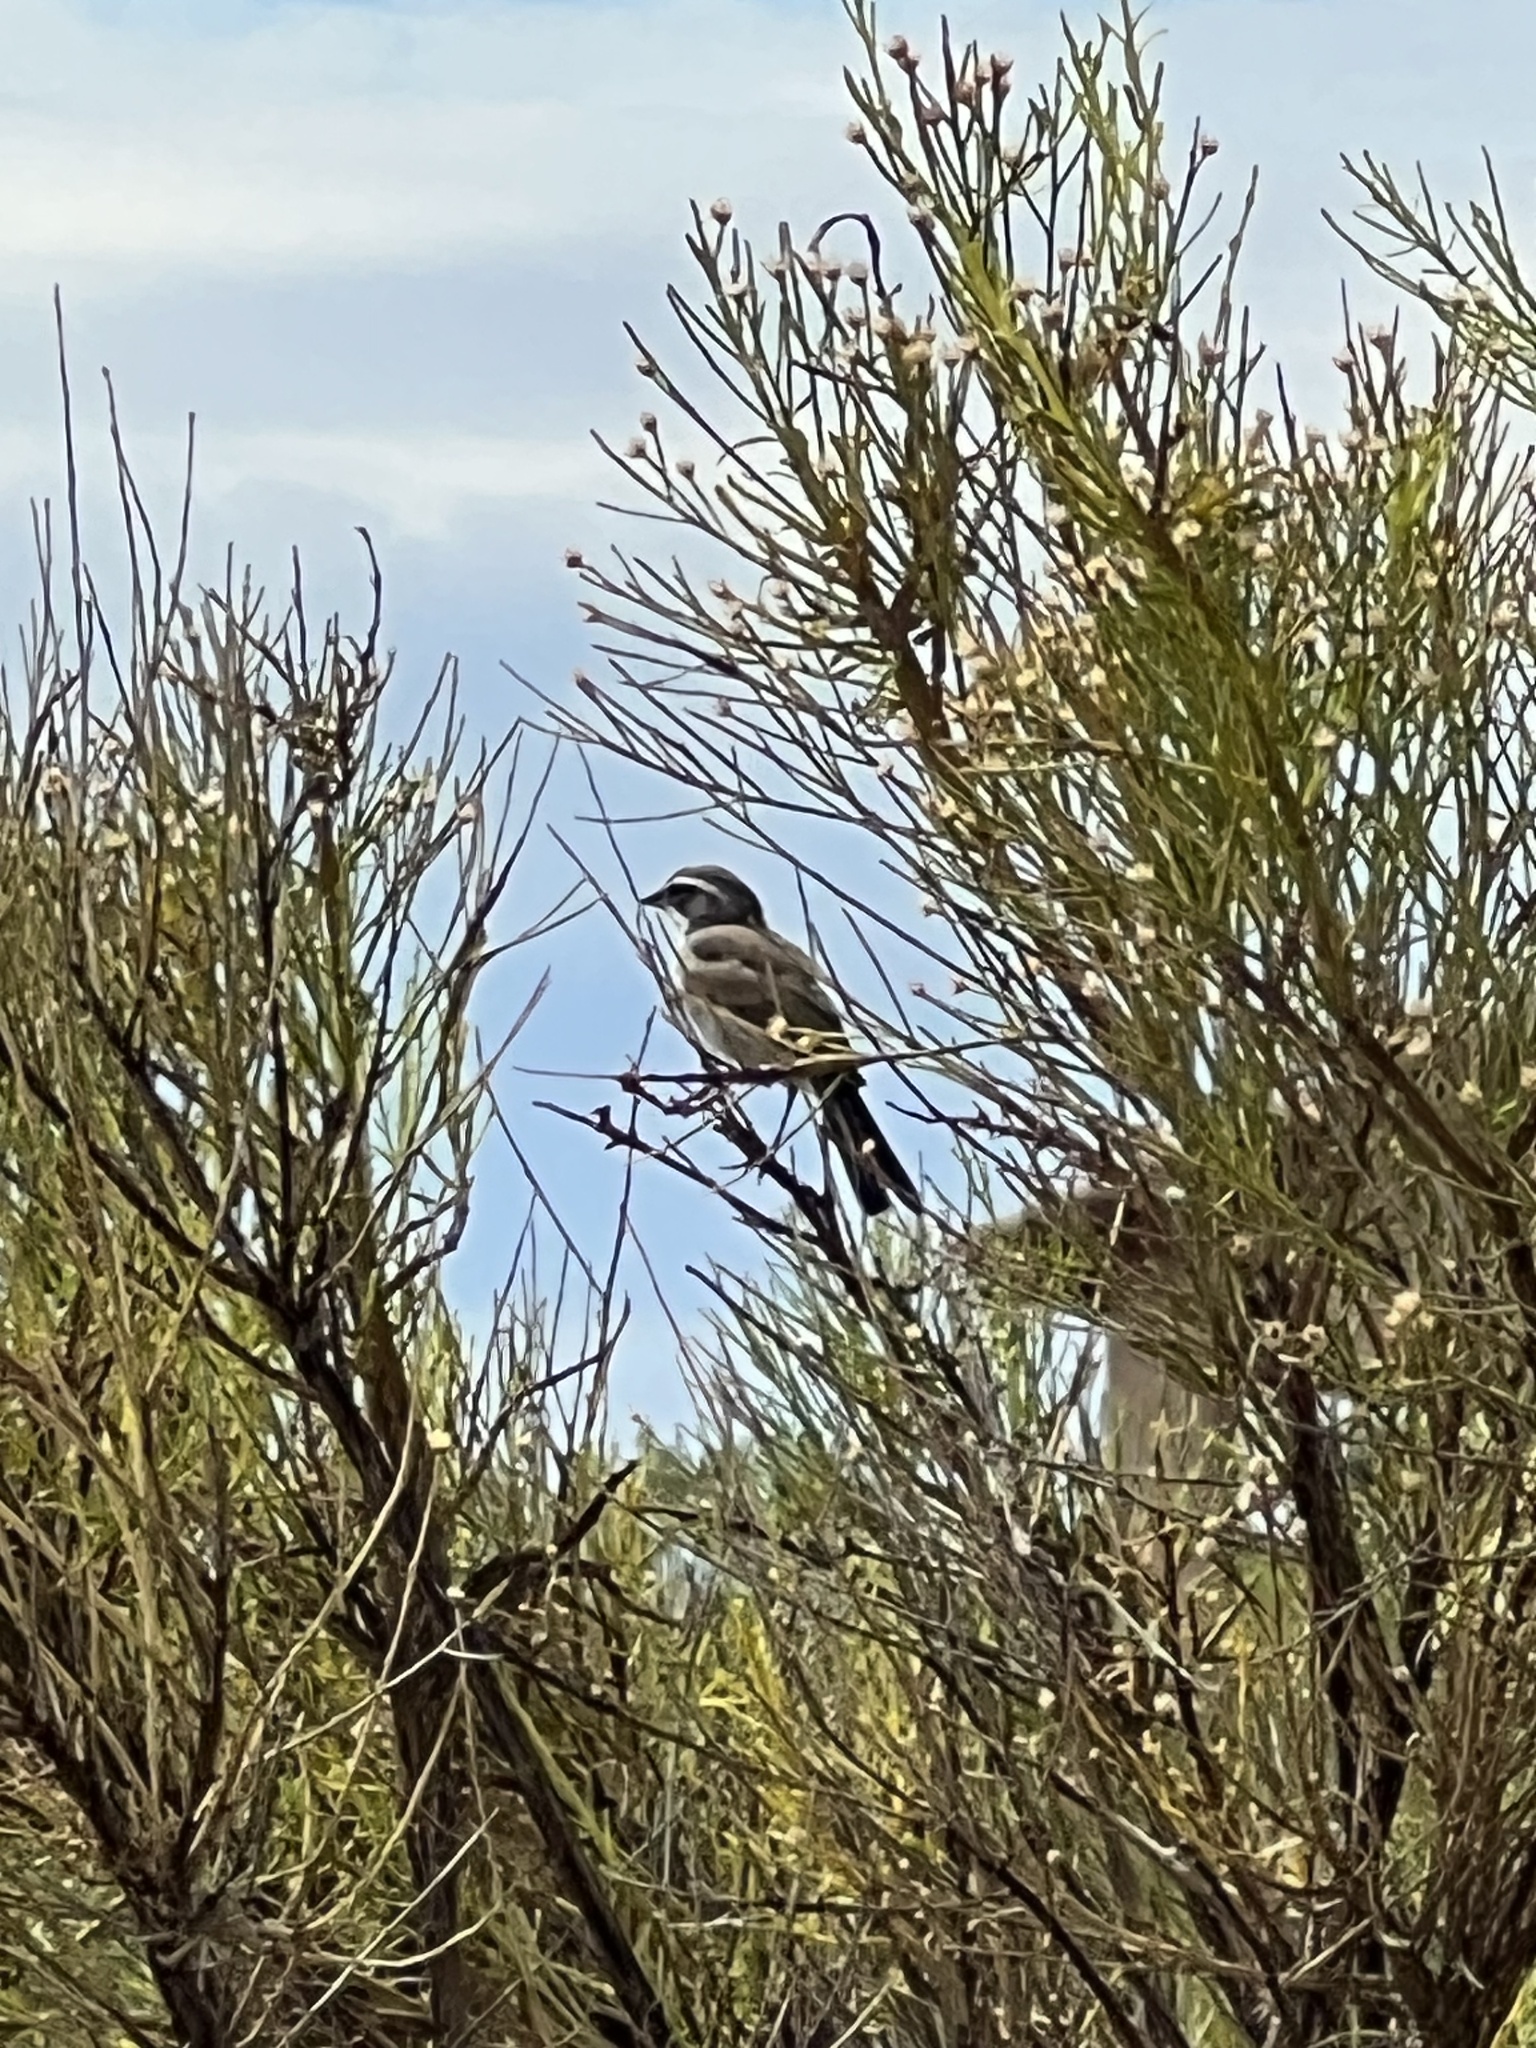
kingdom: Animalia
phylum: Chordata
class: Aves
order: Passeriformes
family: Passerellidae
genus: Amphispiza
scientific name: Amphispiza bilineata
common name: Black-throated sparrow
